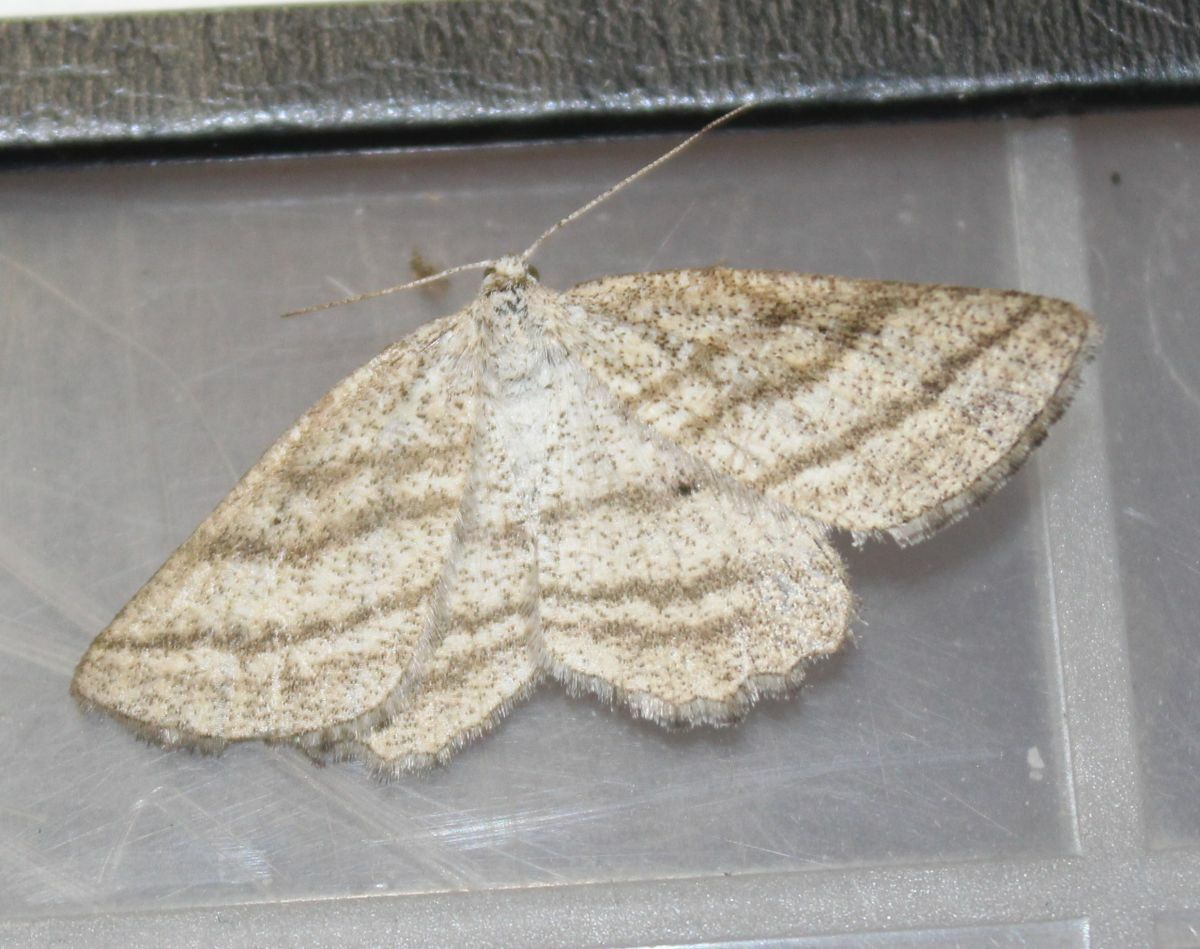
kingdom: Animalia
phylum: Arthropoda
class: Insecta
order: Lepidoptera
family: Geometridae
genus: Perconia
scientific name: Perconia strigillaria
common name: Grass wave
